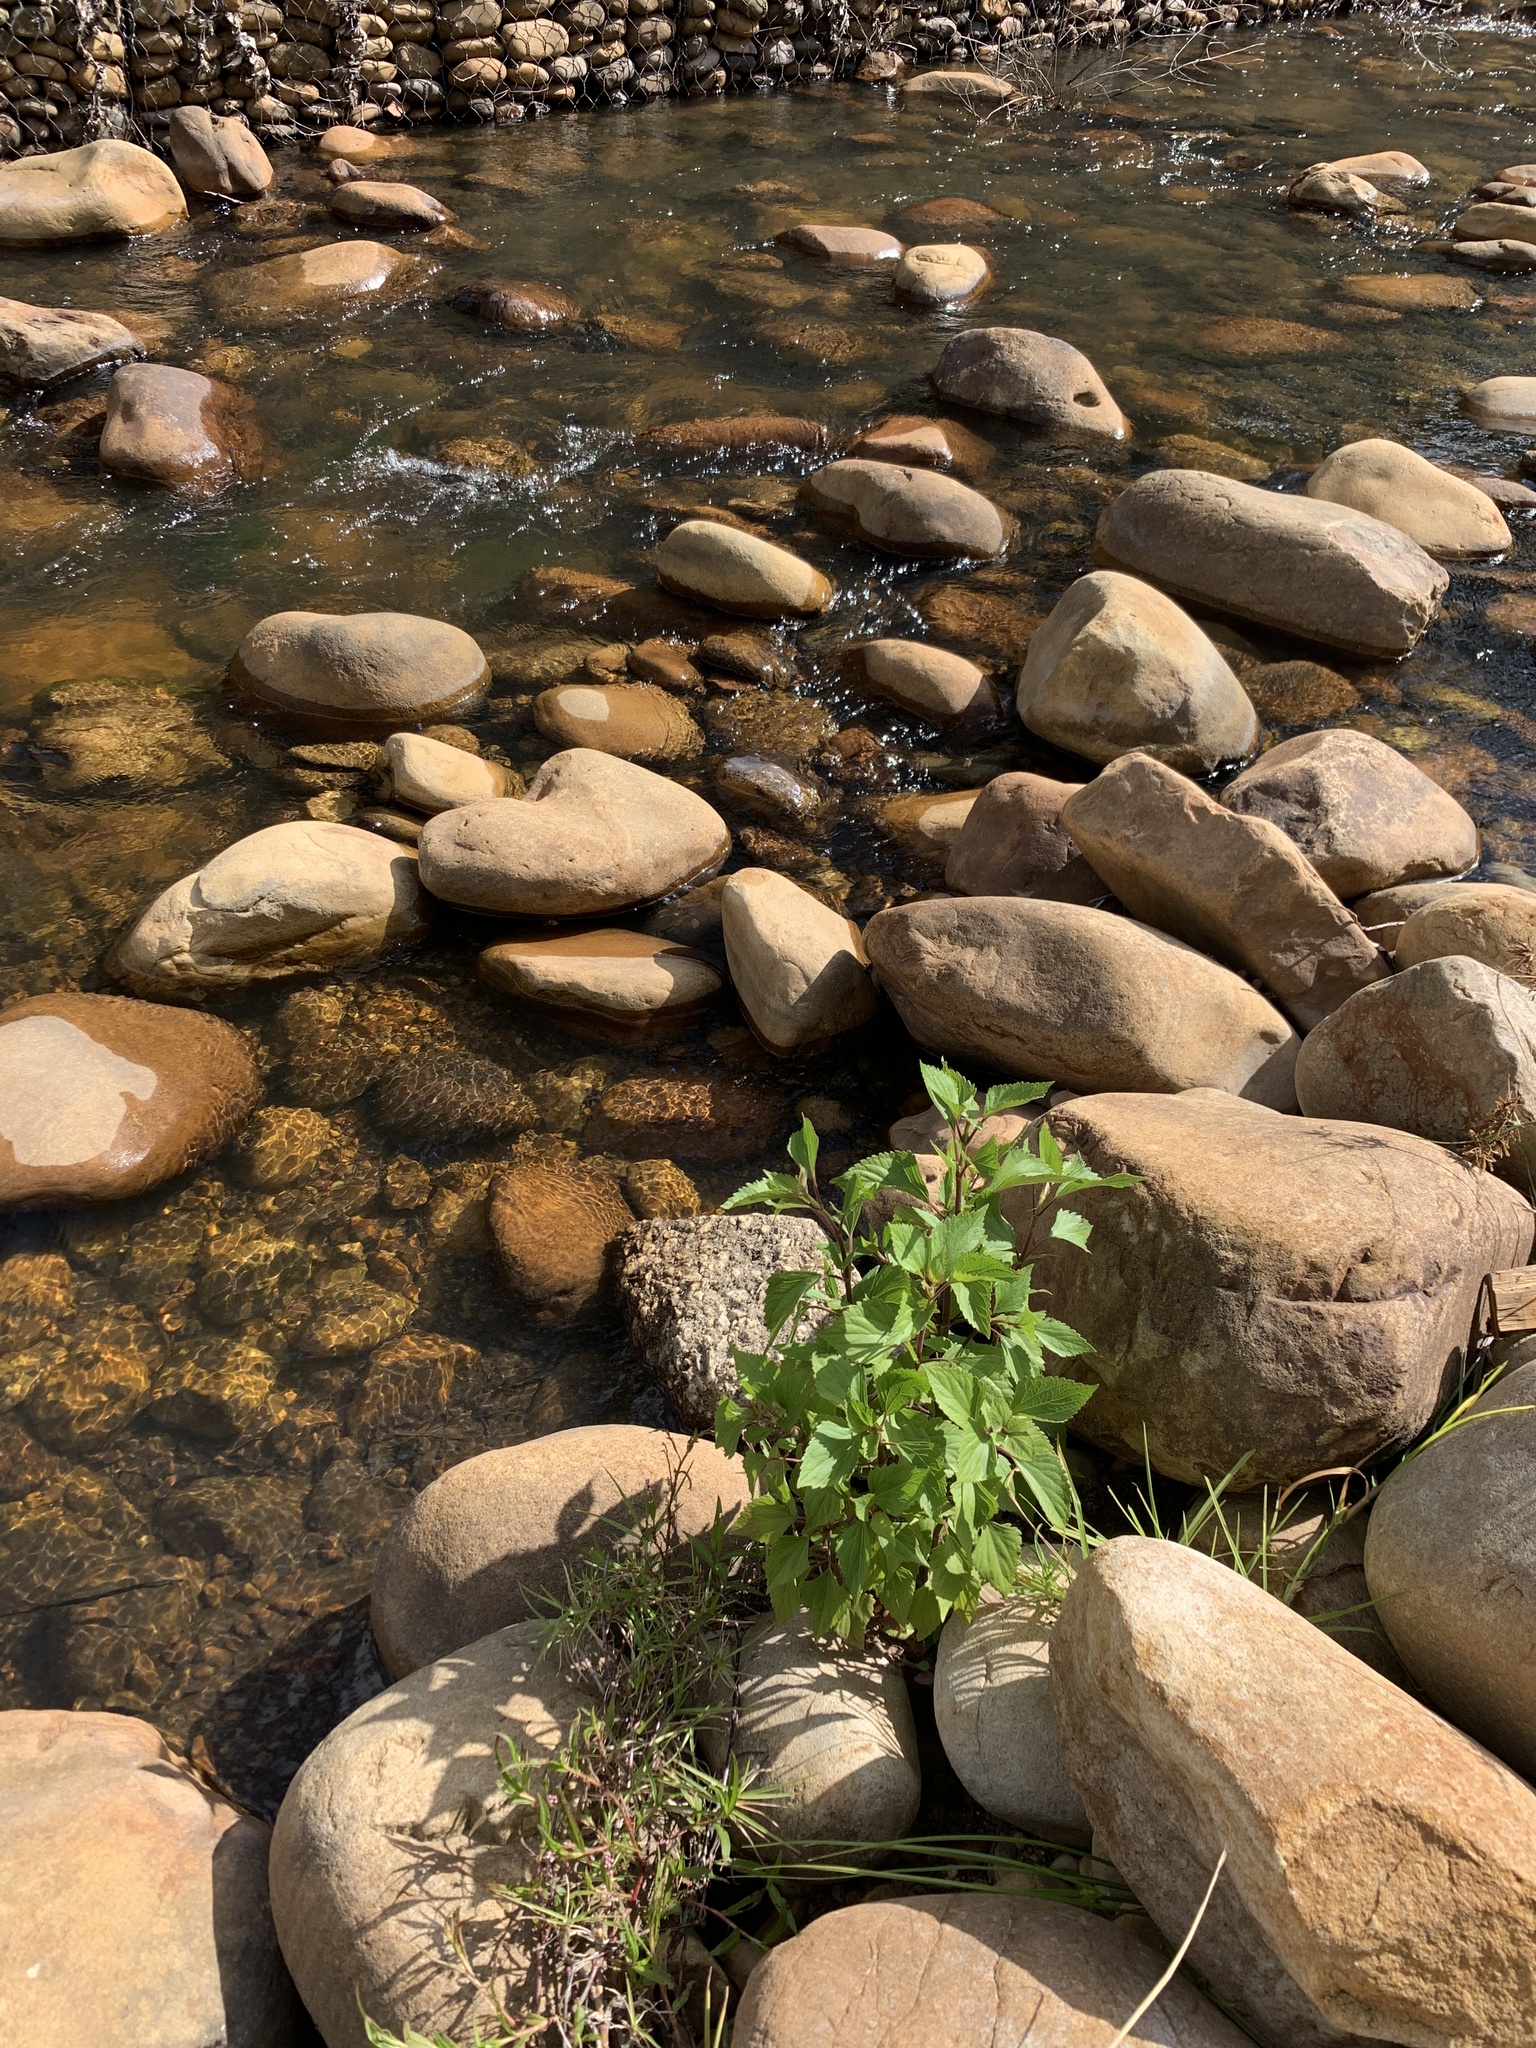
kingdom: Plantae
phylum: Tracheophyta
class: Magnoliopsida
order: Asterales
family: Asteraceae
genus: Ageratina
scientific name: Ageratina adenophora
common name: Sticky snakeroot
